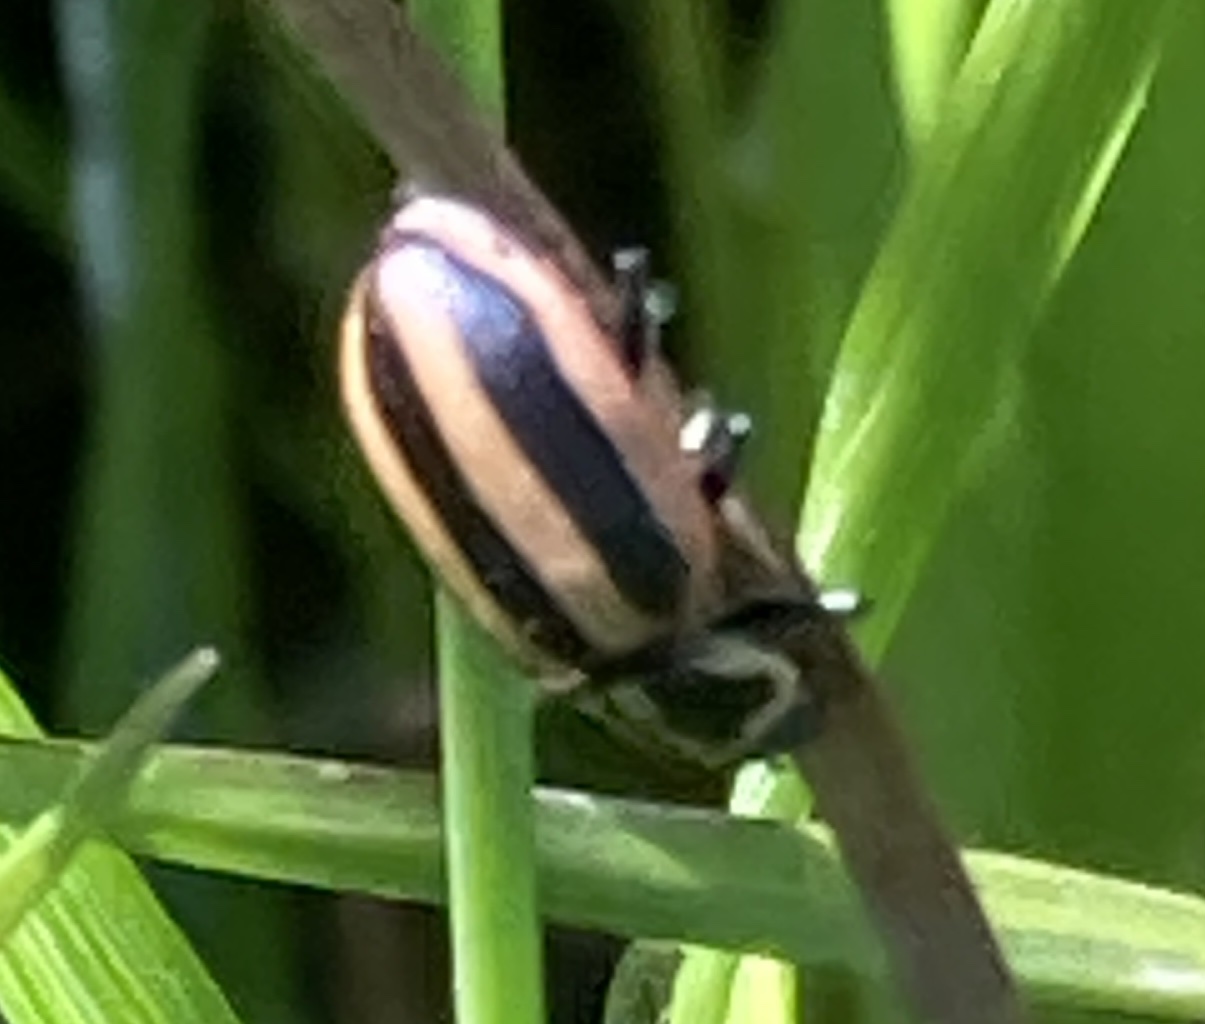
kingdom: Animalia
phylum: Arthropoda
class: Insecta
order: Coleoptera
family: Coccinellidae
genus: Paranaemia
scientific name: Paranaemia vittigera
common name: Ladybird beetle
